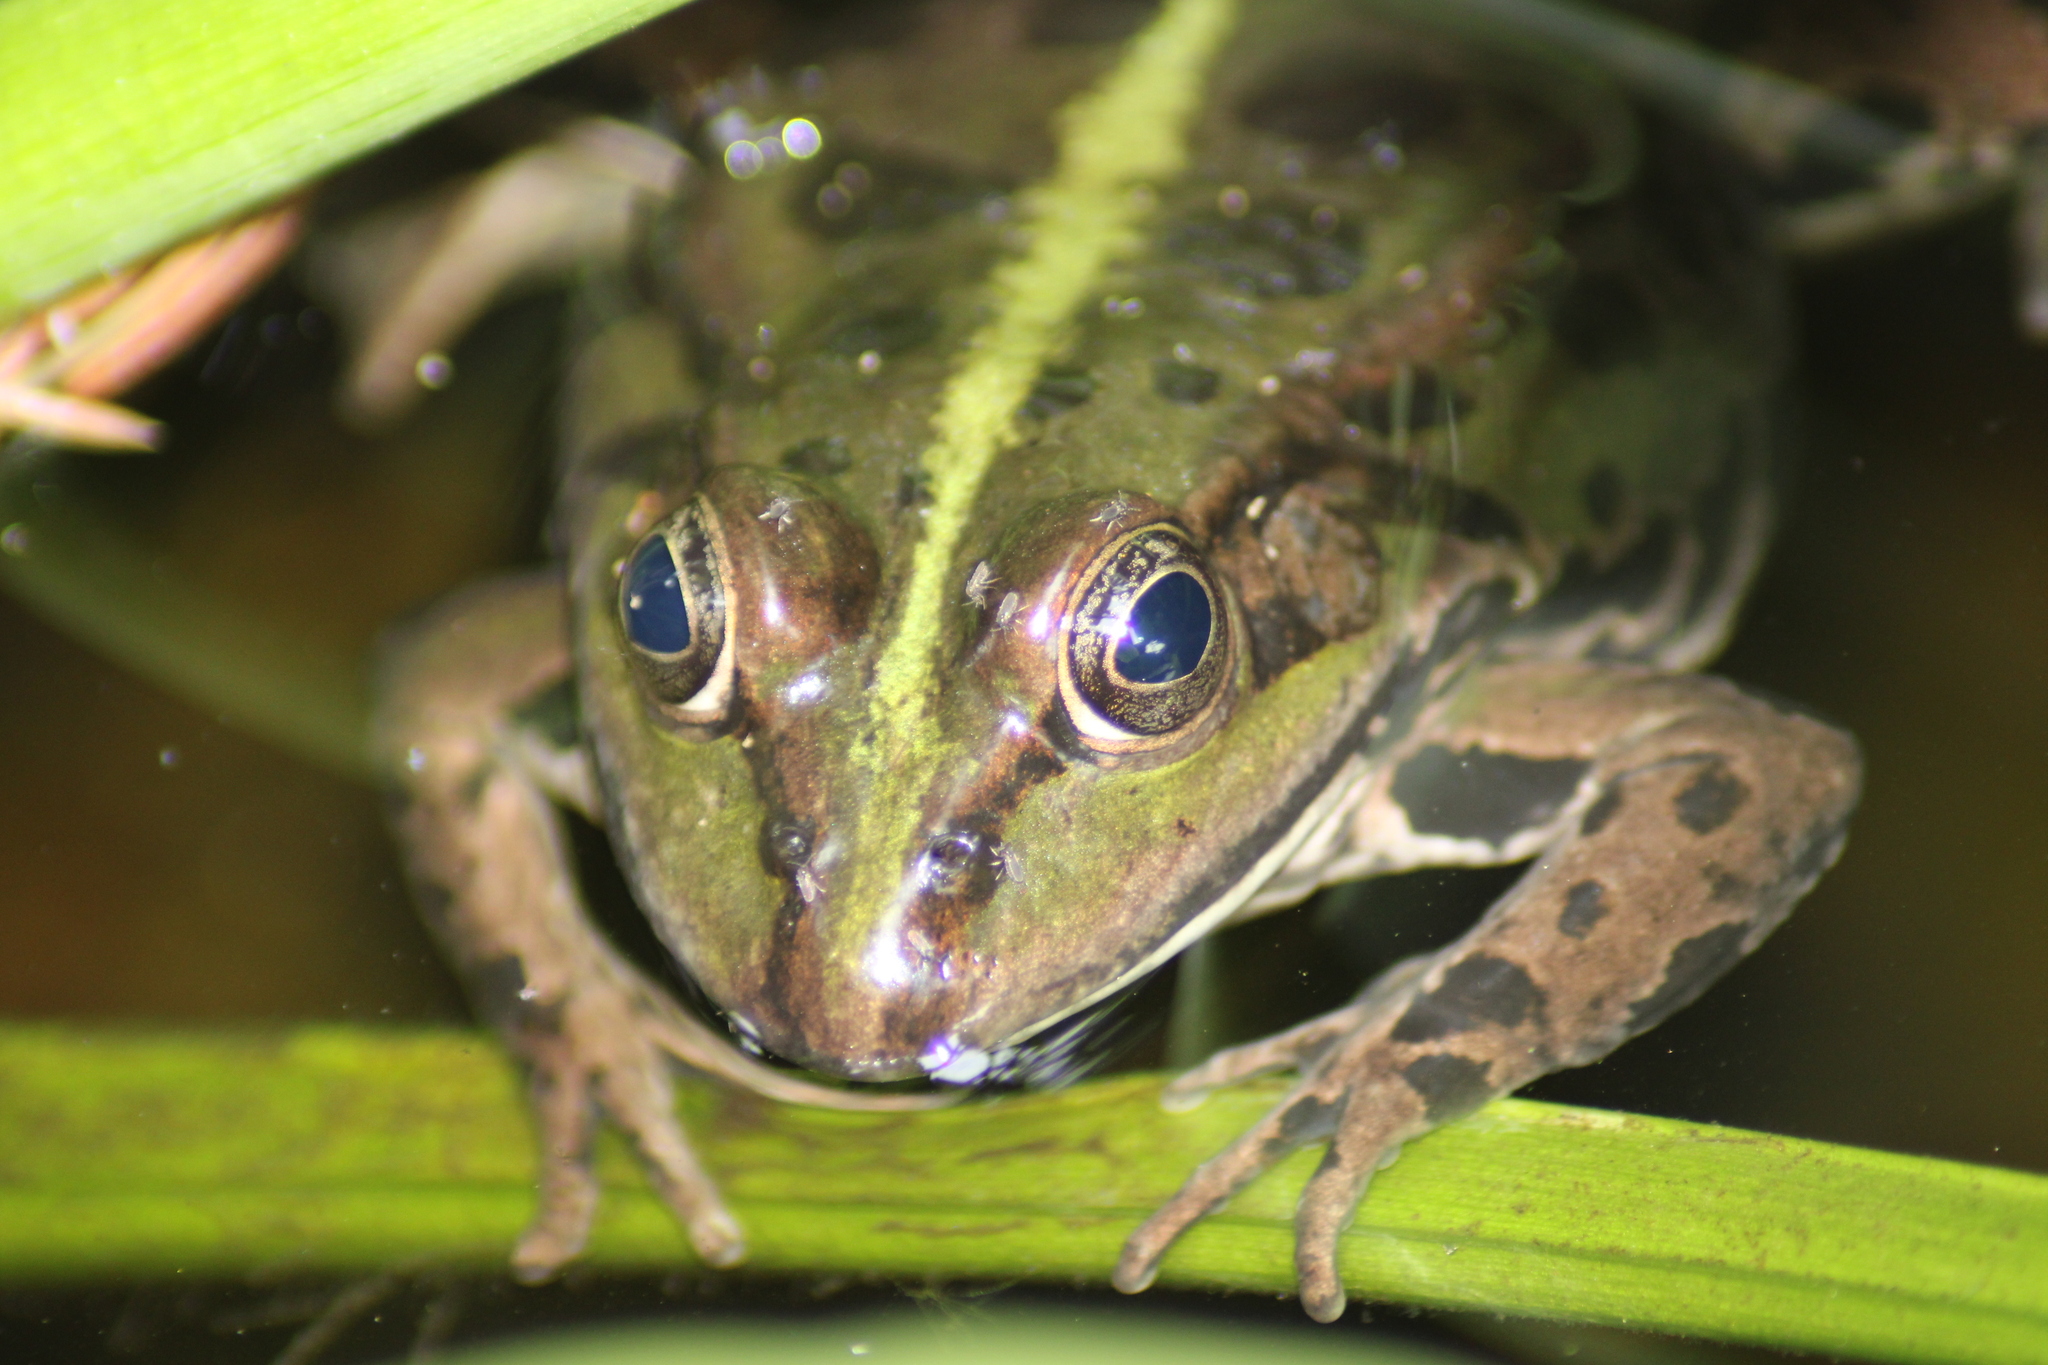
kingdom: Animalia
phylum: Chordata
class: Amphibia
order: Anura
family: Ranidae
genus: Pelophylax
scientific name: Pelophylax
